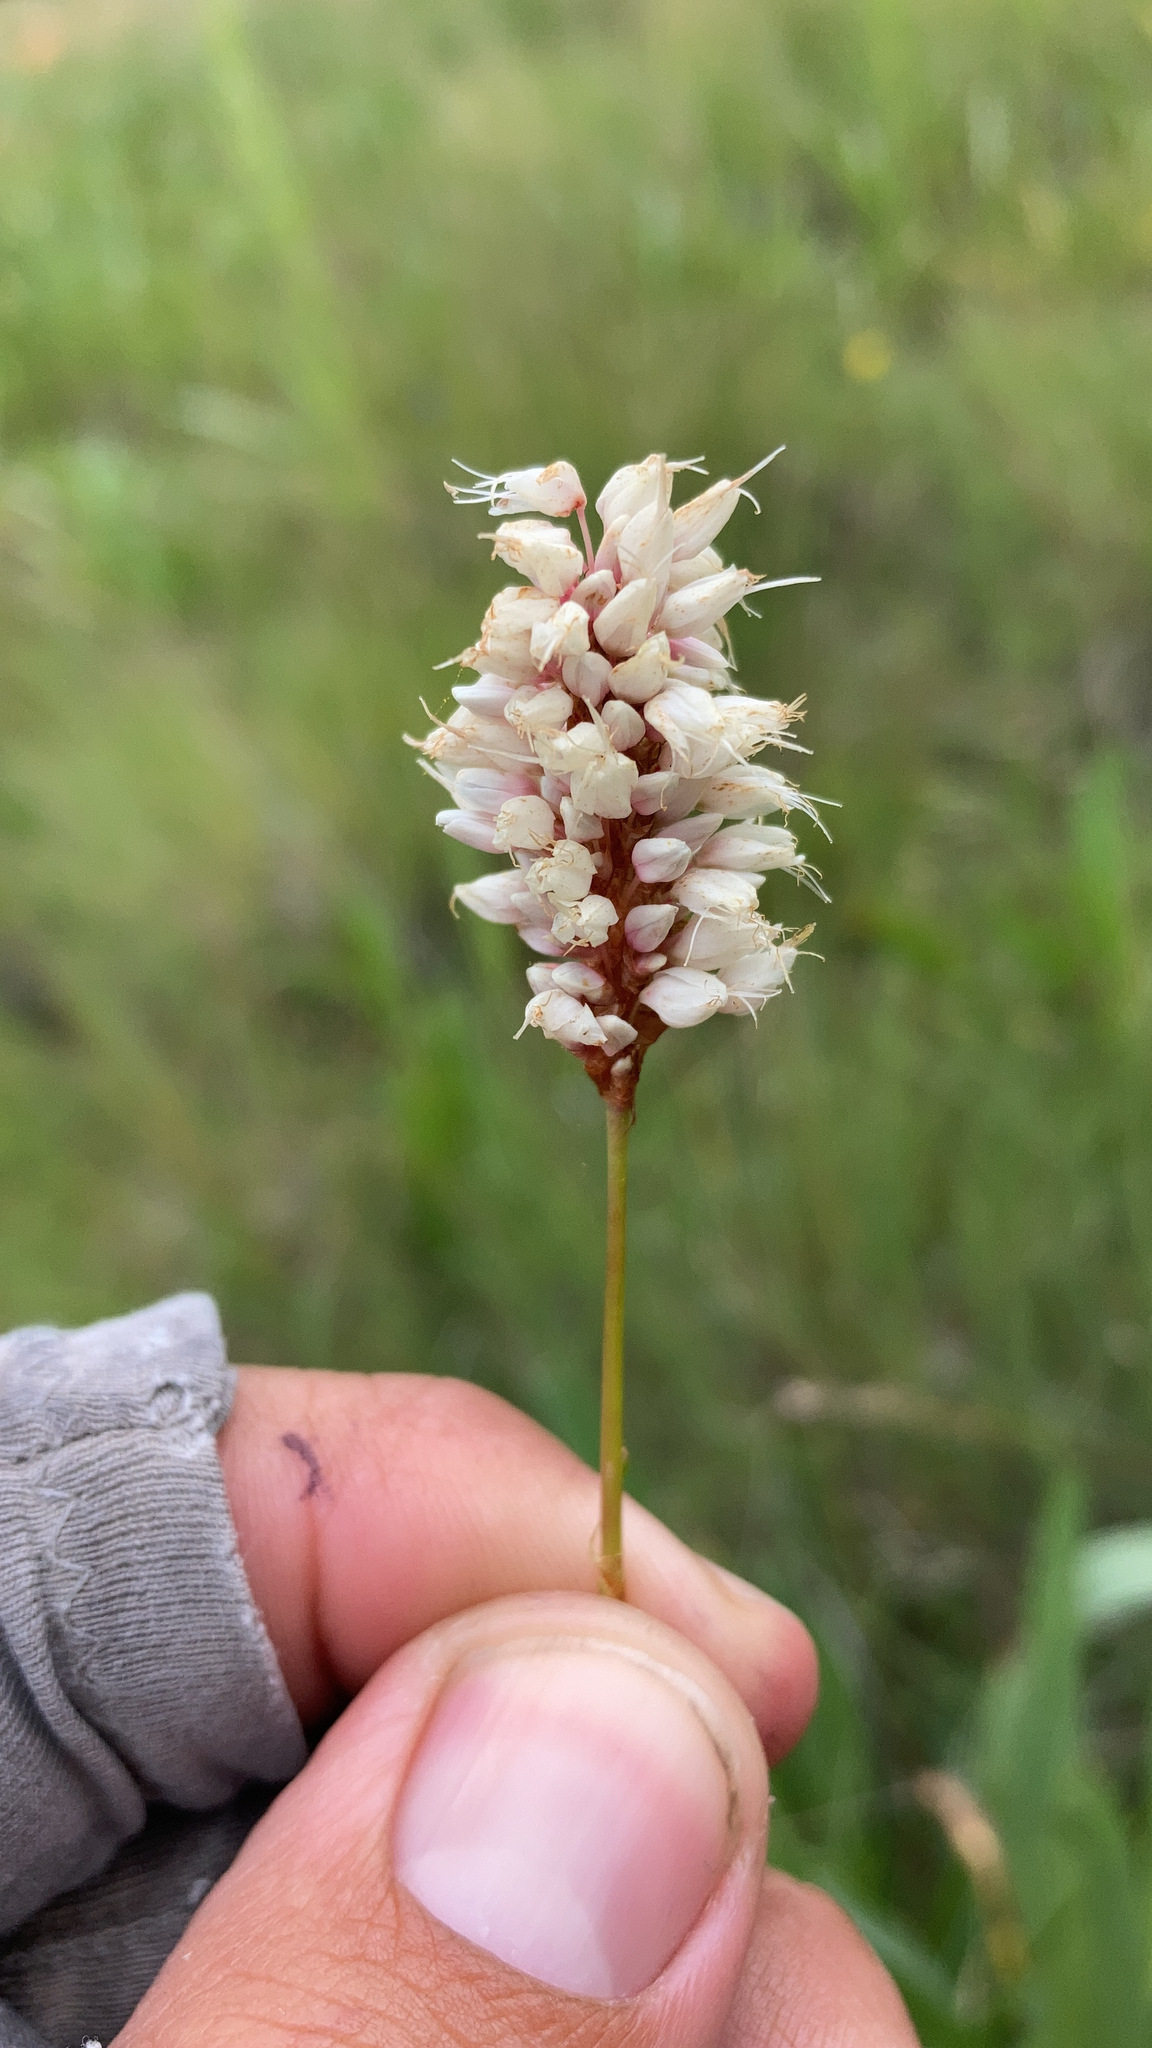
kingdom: Plantae
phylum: Tracheophyta
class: Magnoliopsida
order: Caryophyllales
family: Polygonaceae
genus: Bistorta
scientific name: Bistorta bistortoides
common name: American bistort
